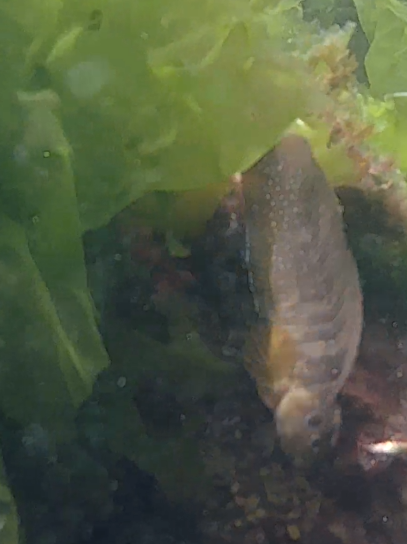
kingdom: Animalia
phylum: Chordata
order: Perciformes
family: Blenniidae
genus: Salaria
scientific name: Salaria pavo
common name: Peacock blenny
